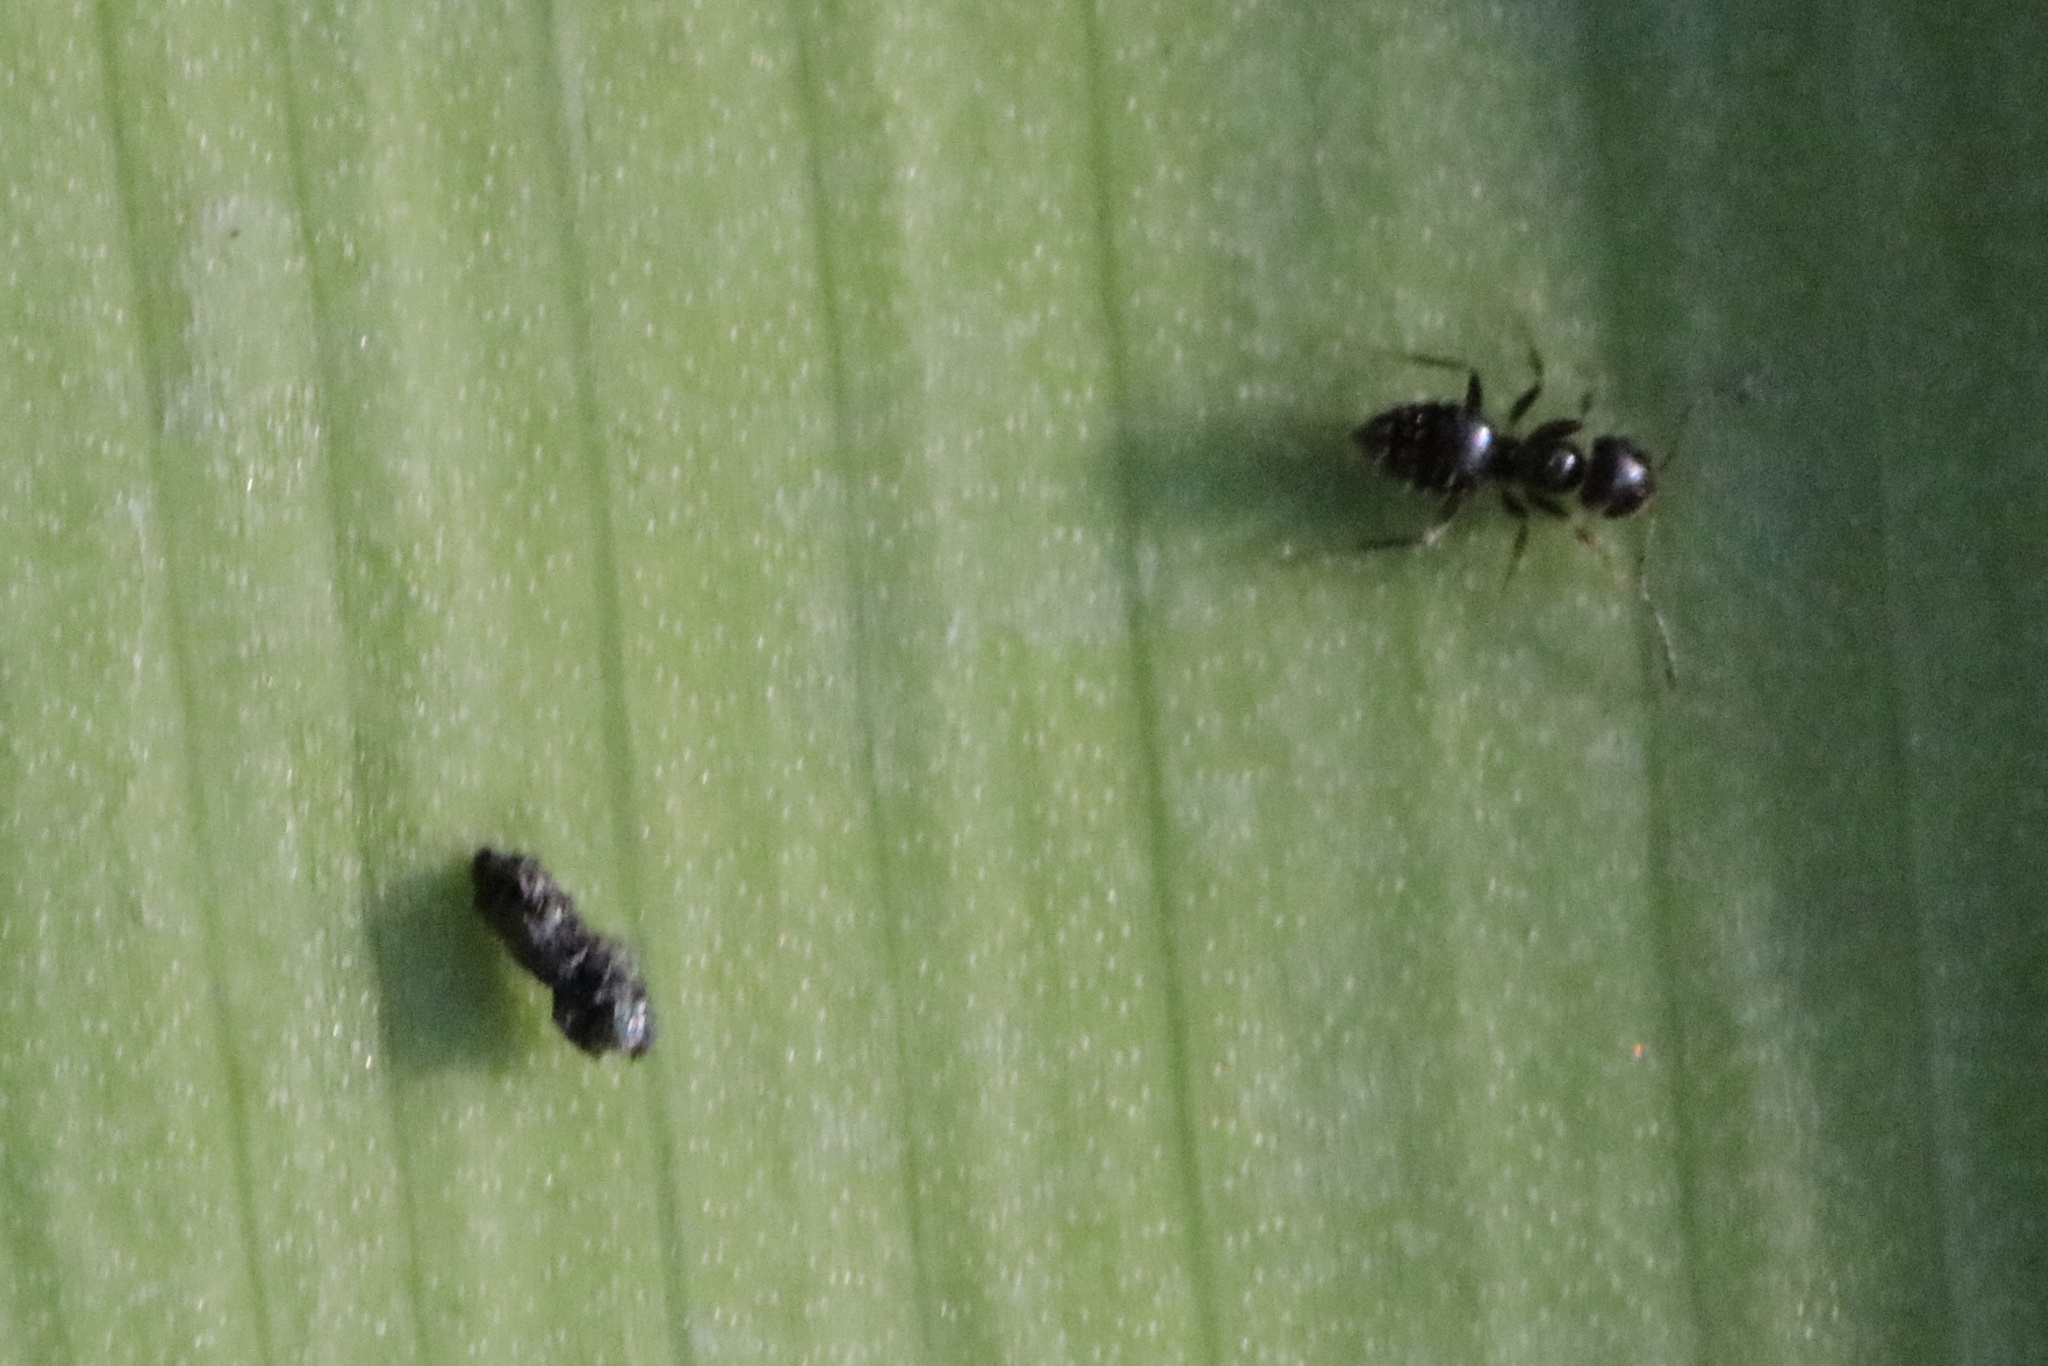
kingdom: Animalia
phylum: Arthropoda
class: Insecta
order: Hymenoptera
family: Formicidae
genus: Brachymyrmex
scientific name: Brachymyrmex patagonicus
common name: Dark rover ant
